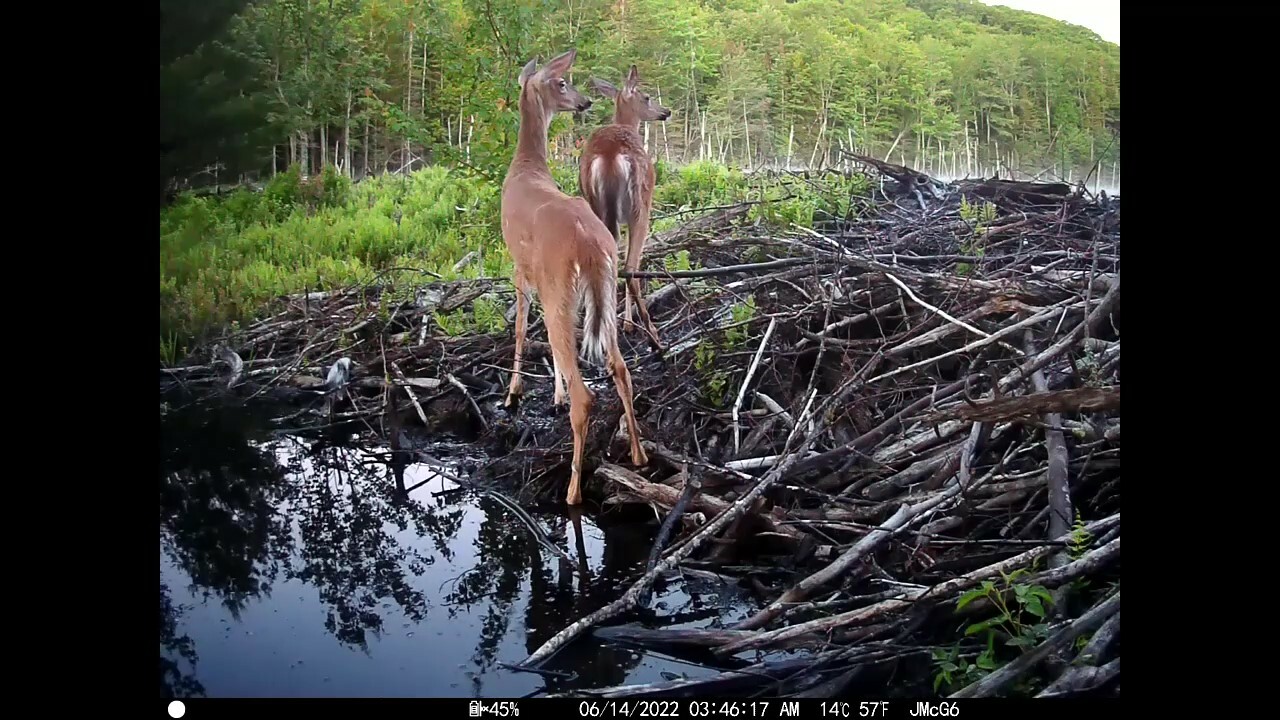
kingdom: Animalia
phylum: Chordata
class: Mammalia
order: Artiodactyla
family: Cervidae
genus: Odocoileus
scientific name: Odocoileus virginianus
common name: White-tailed deer
